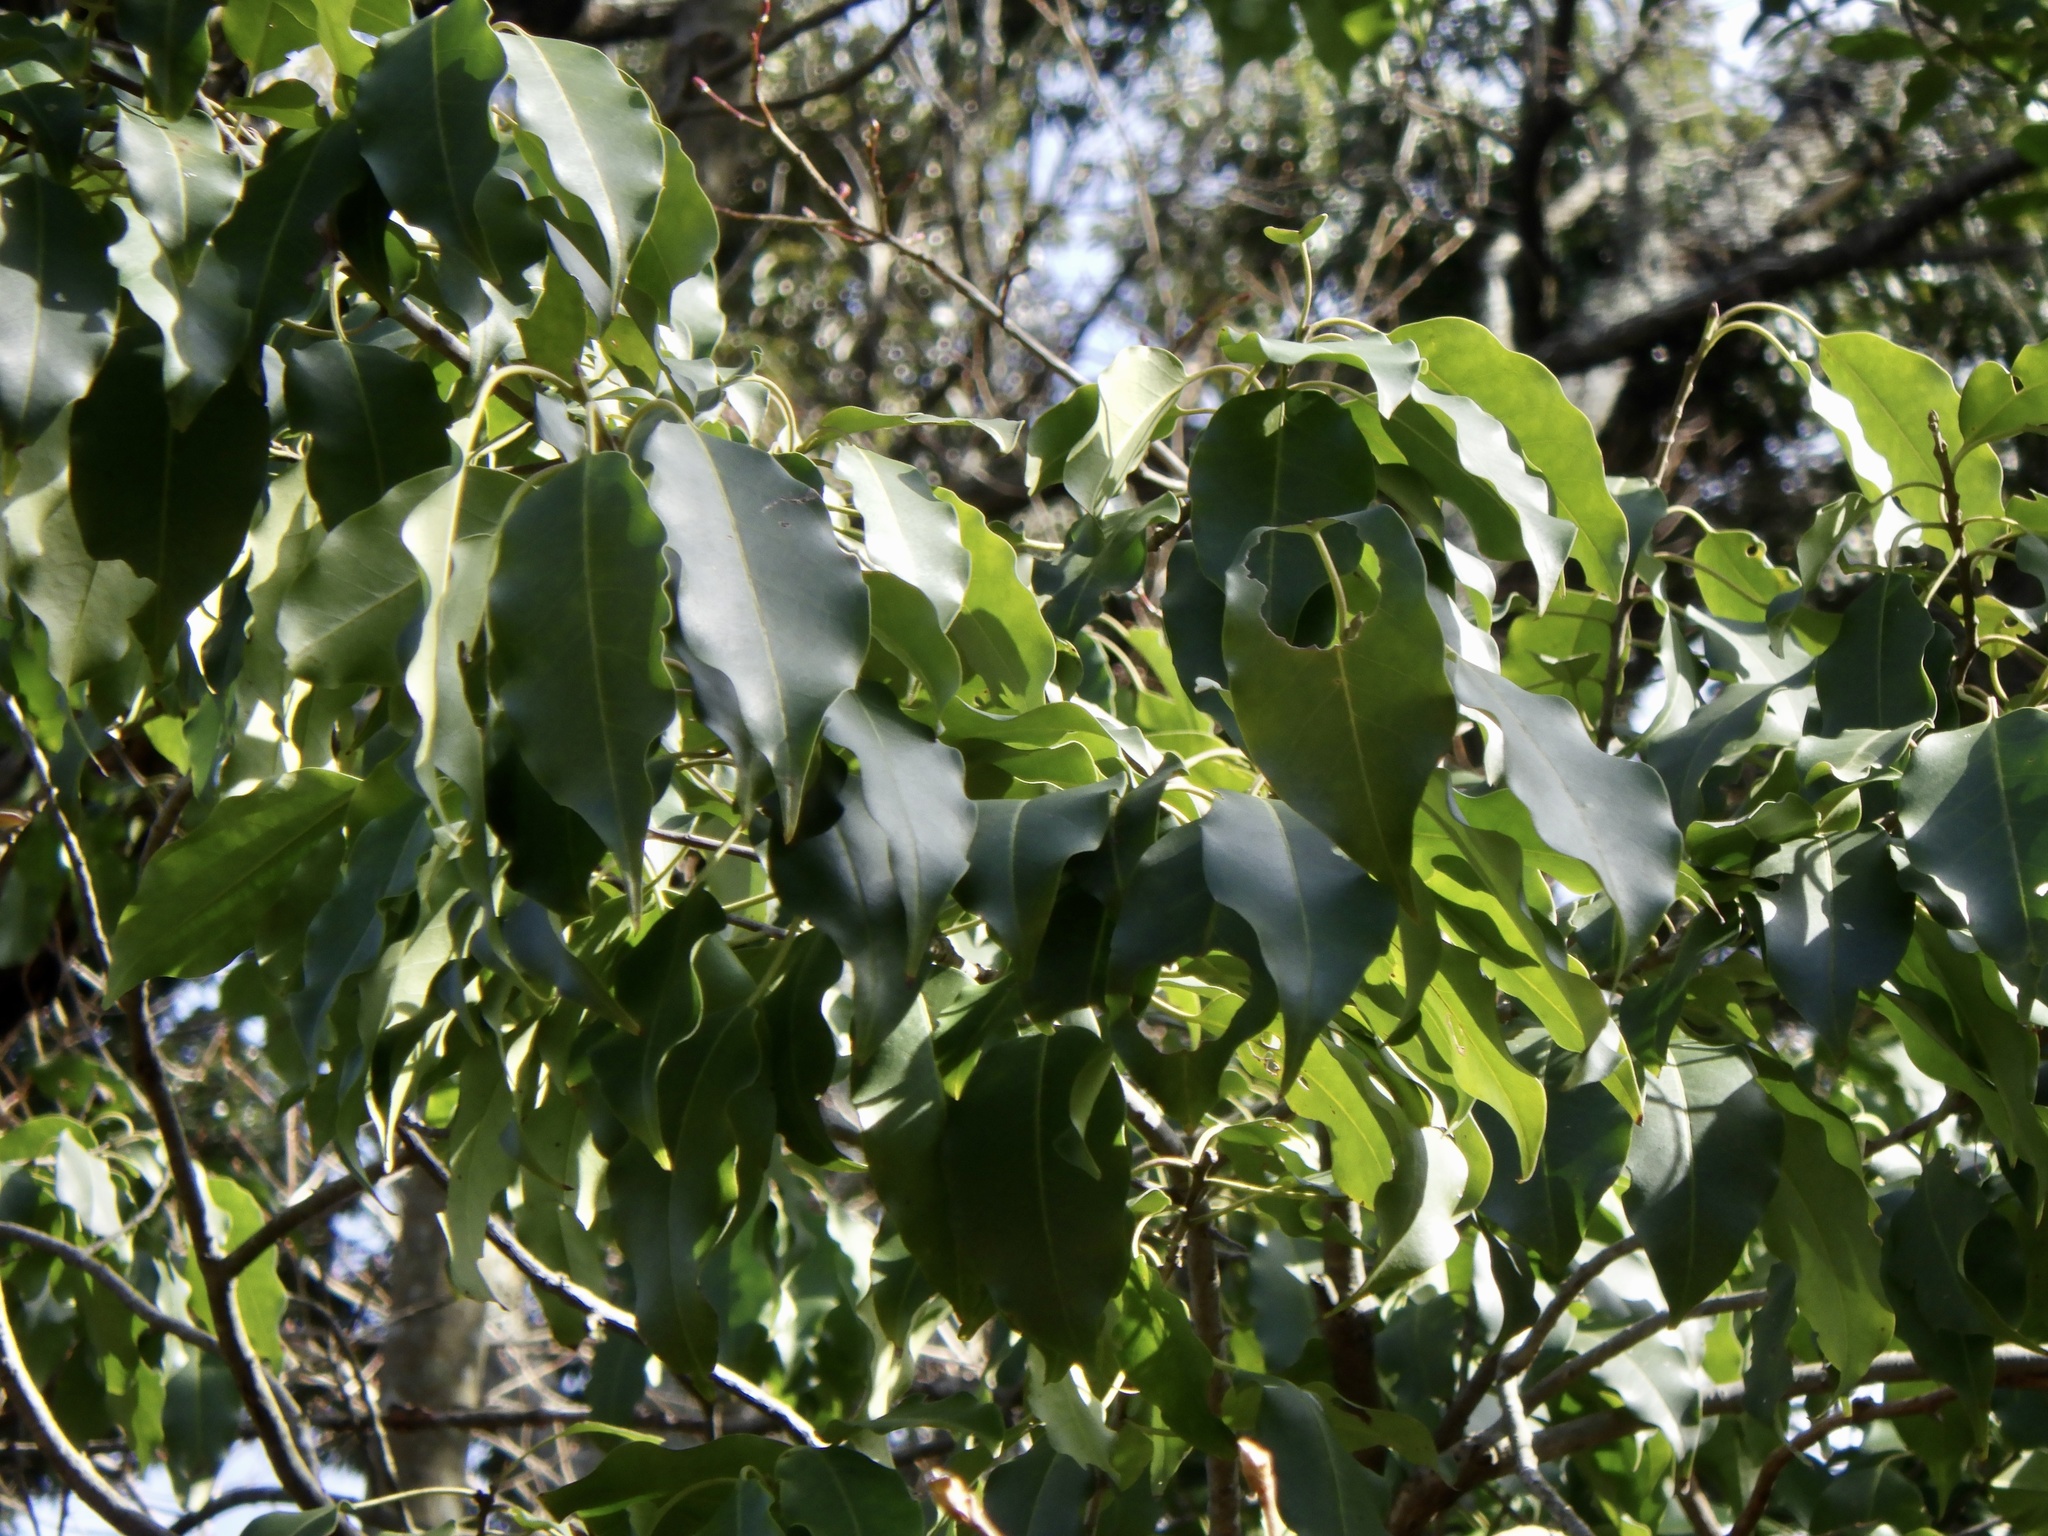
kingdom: Plantae
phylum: Tracheophyta
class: Magnoliopsida
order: Aquifoliales
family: Aquifoliaceae
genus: Ilex
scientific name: Ilex pedunculosa
